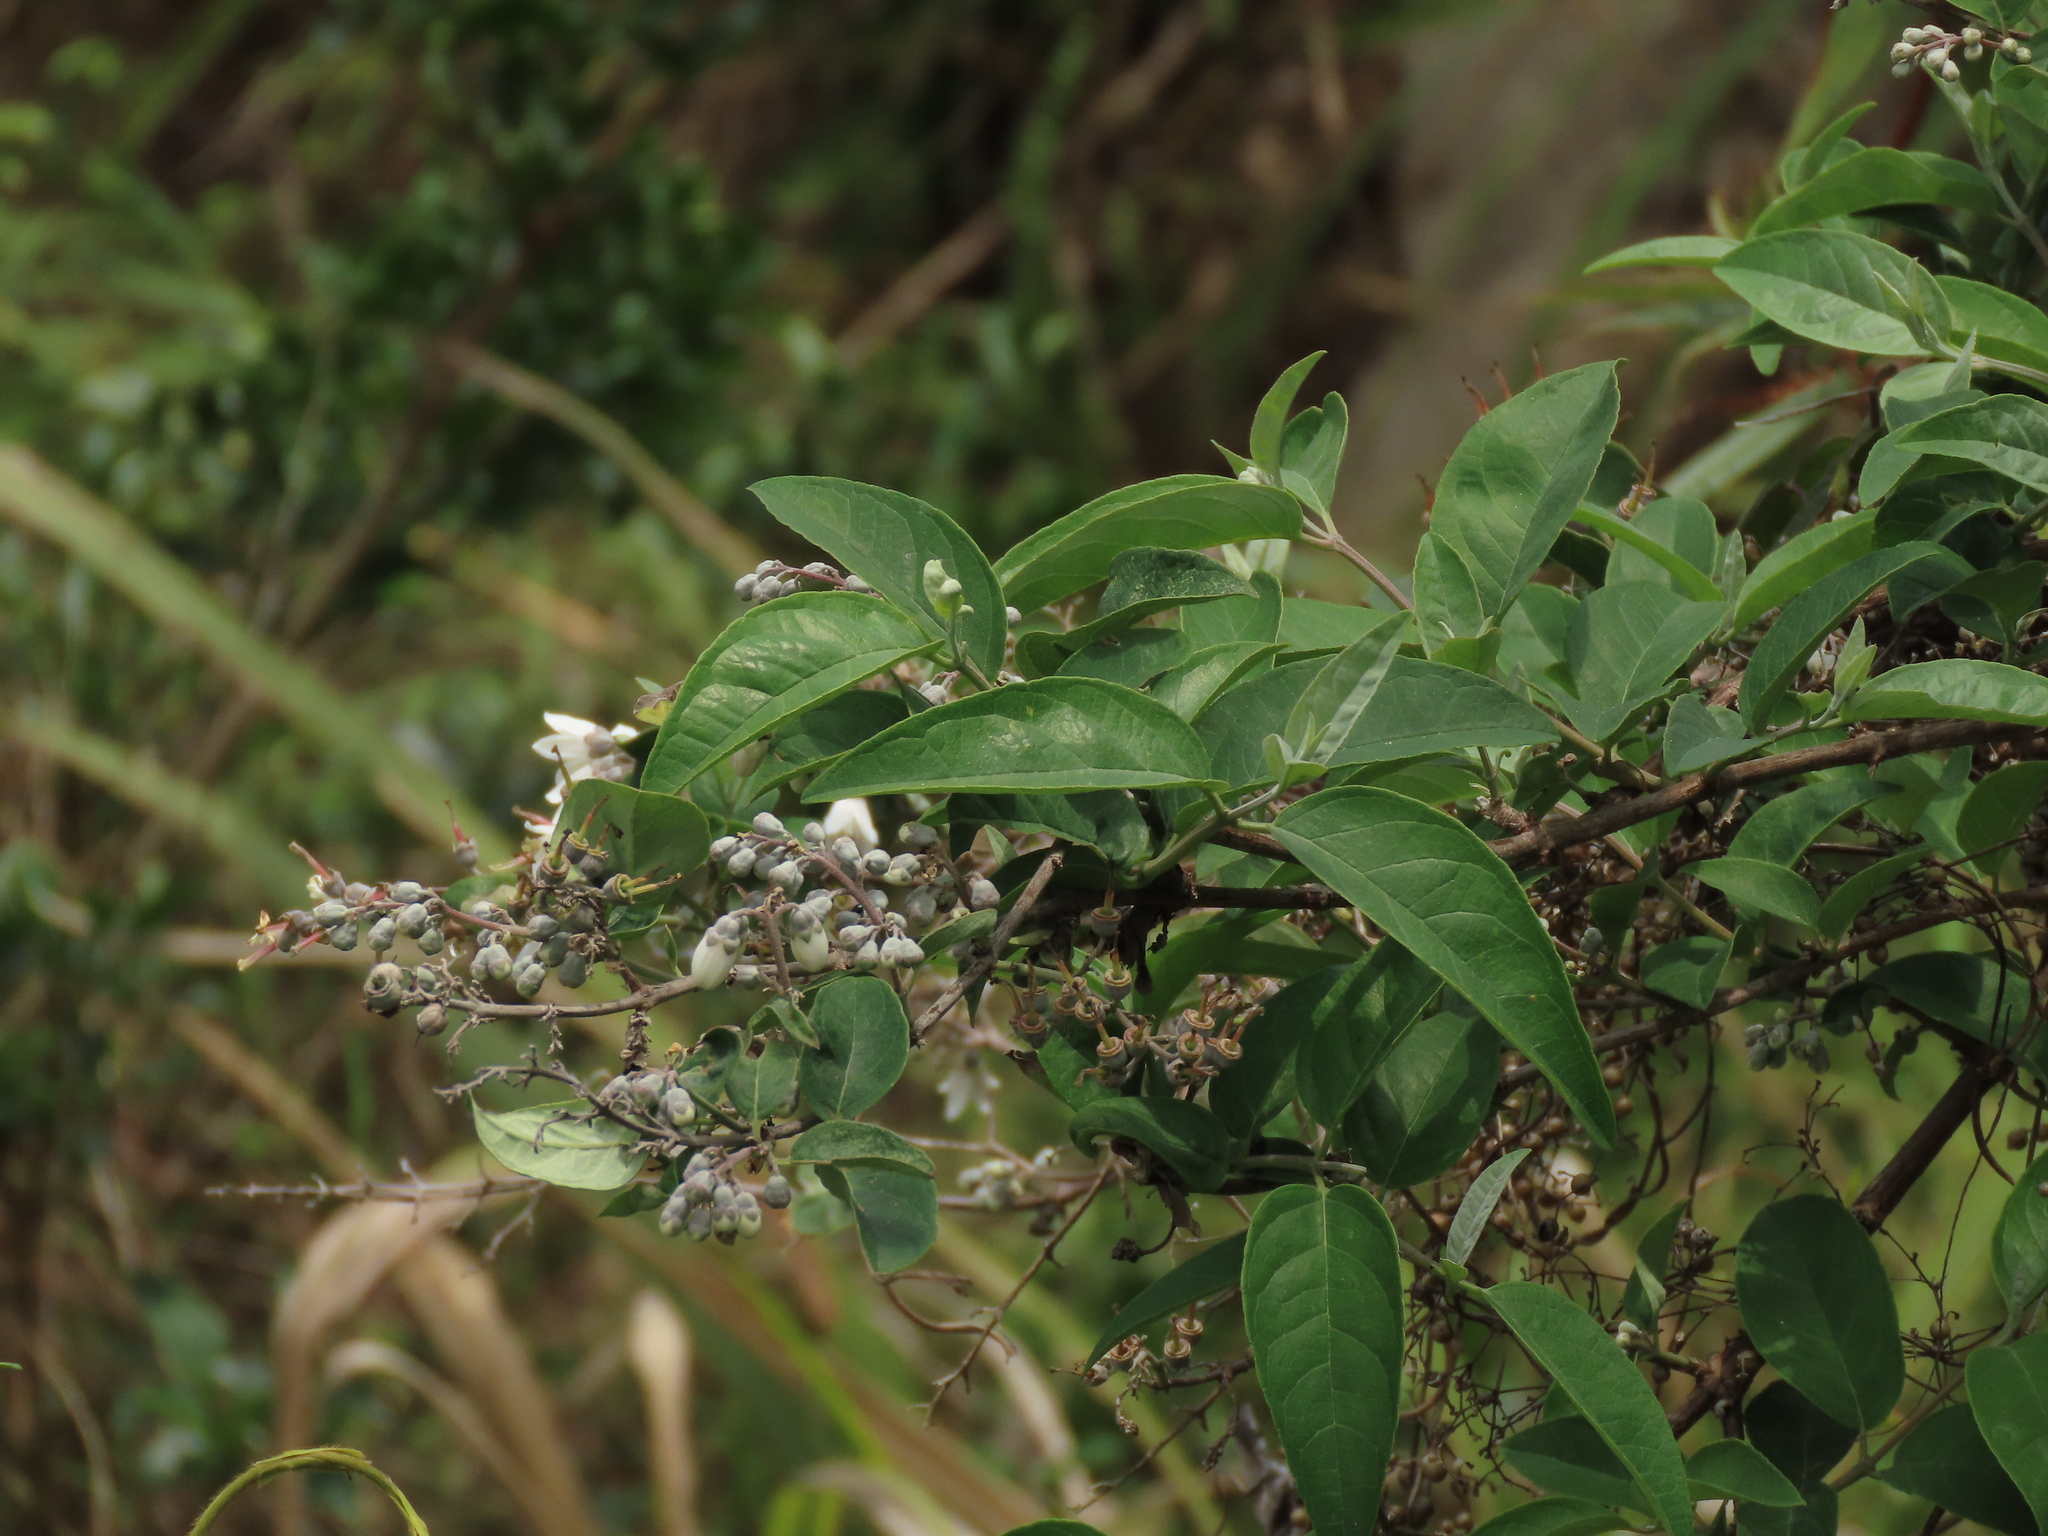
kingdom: Plantae
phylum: Tracheophyta
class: Magnoliopsida
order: Cornales
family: Hydrangeaceae
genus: Deutzia
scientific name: Deutzia pulchra
